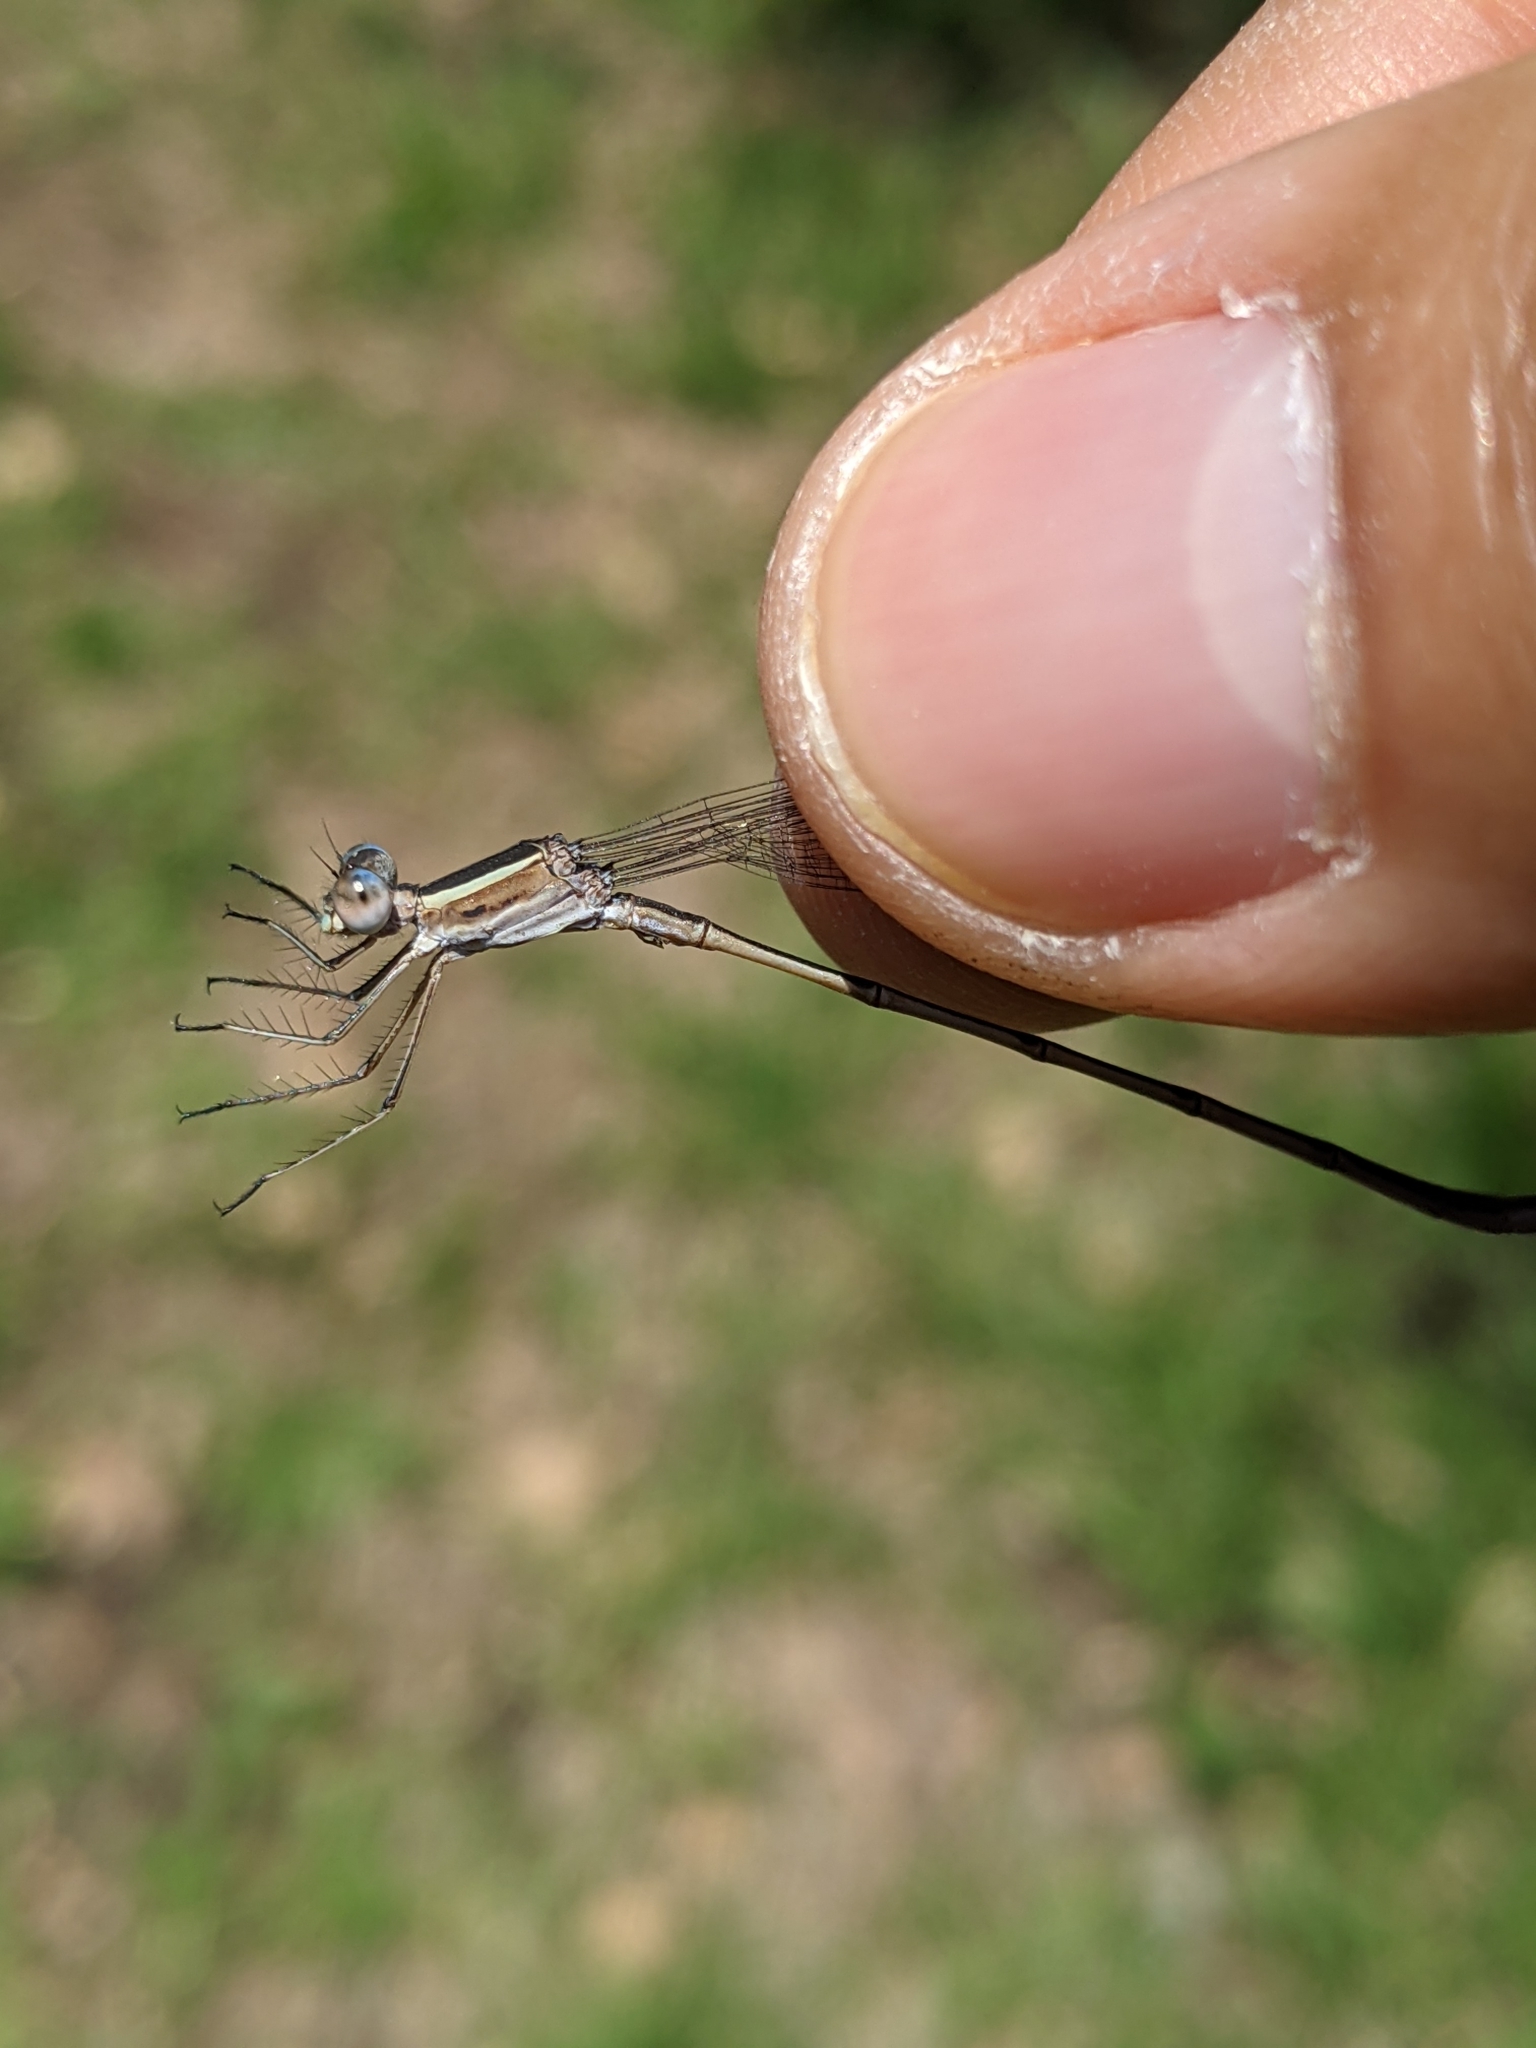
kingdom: Animalia
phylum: Arthropoda
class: Insecta
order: Odonata
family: Lestidae
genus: Lestes
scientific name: Lestes alacer
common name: Plateau spreadwing
